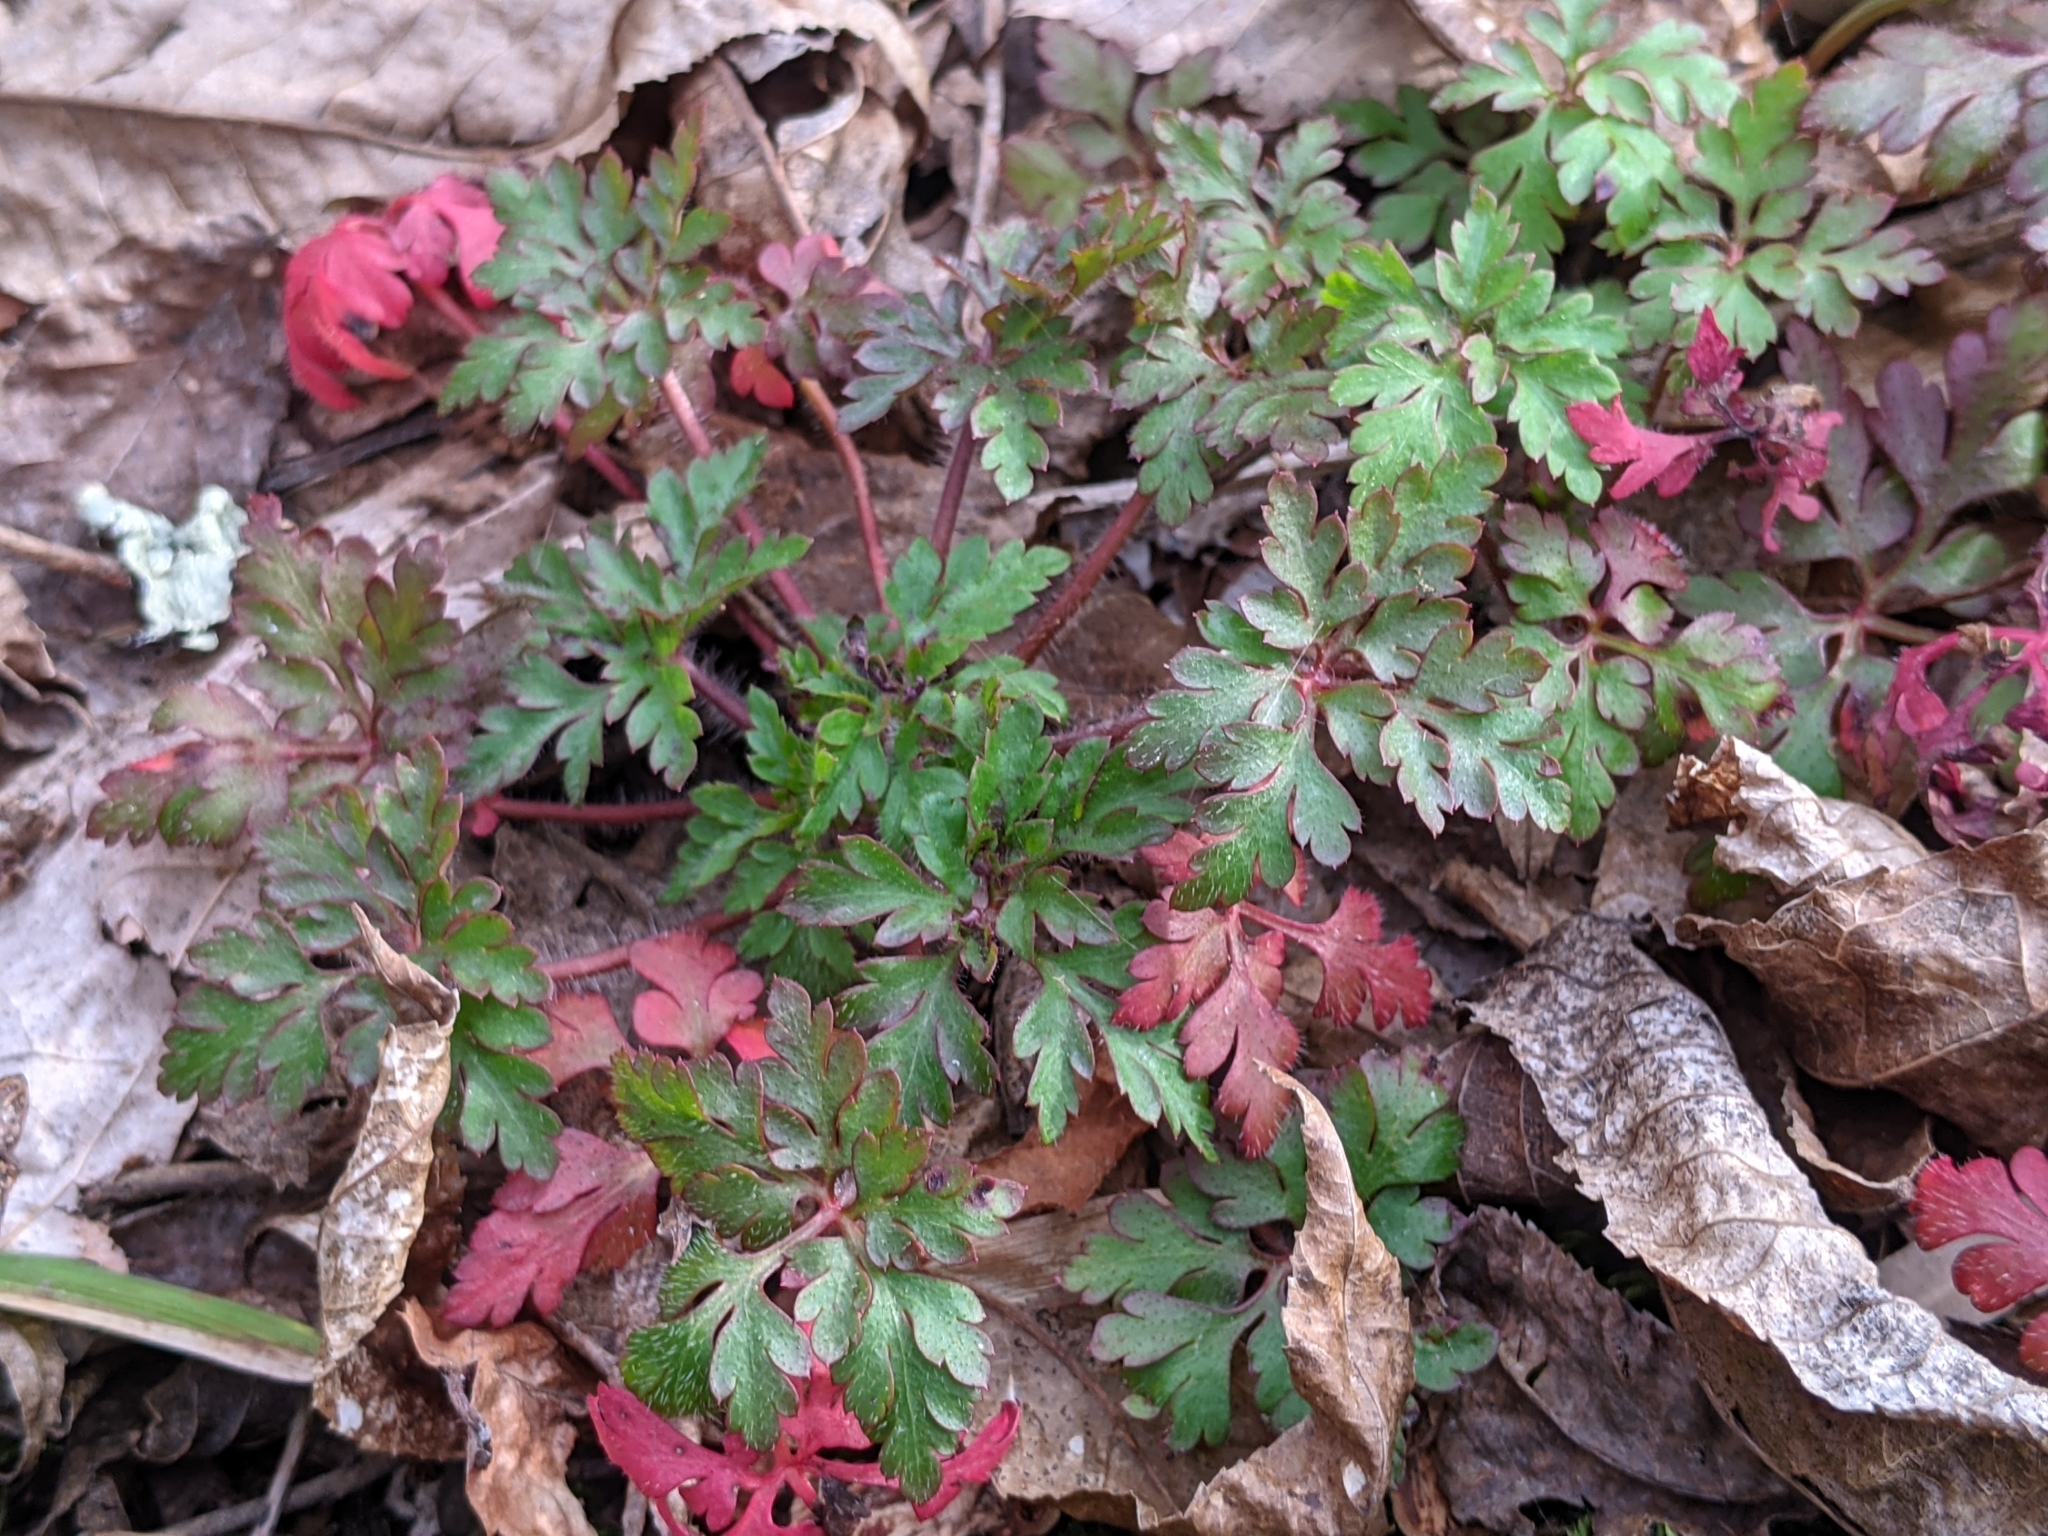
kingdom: Plantae
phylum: Tracheophyta
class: Magnoliopsida
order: Geraniales
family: Geraniaceae
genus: Geranium
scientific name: Geranium robertianum
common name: Herb-robert
